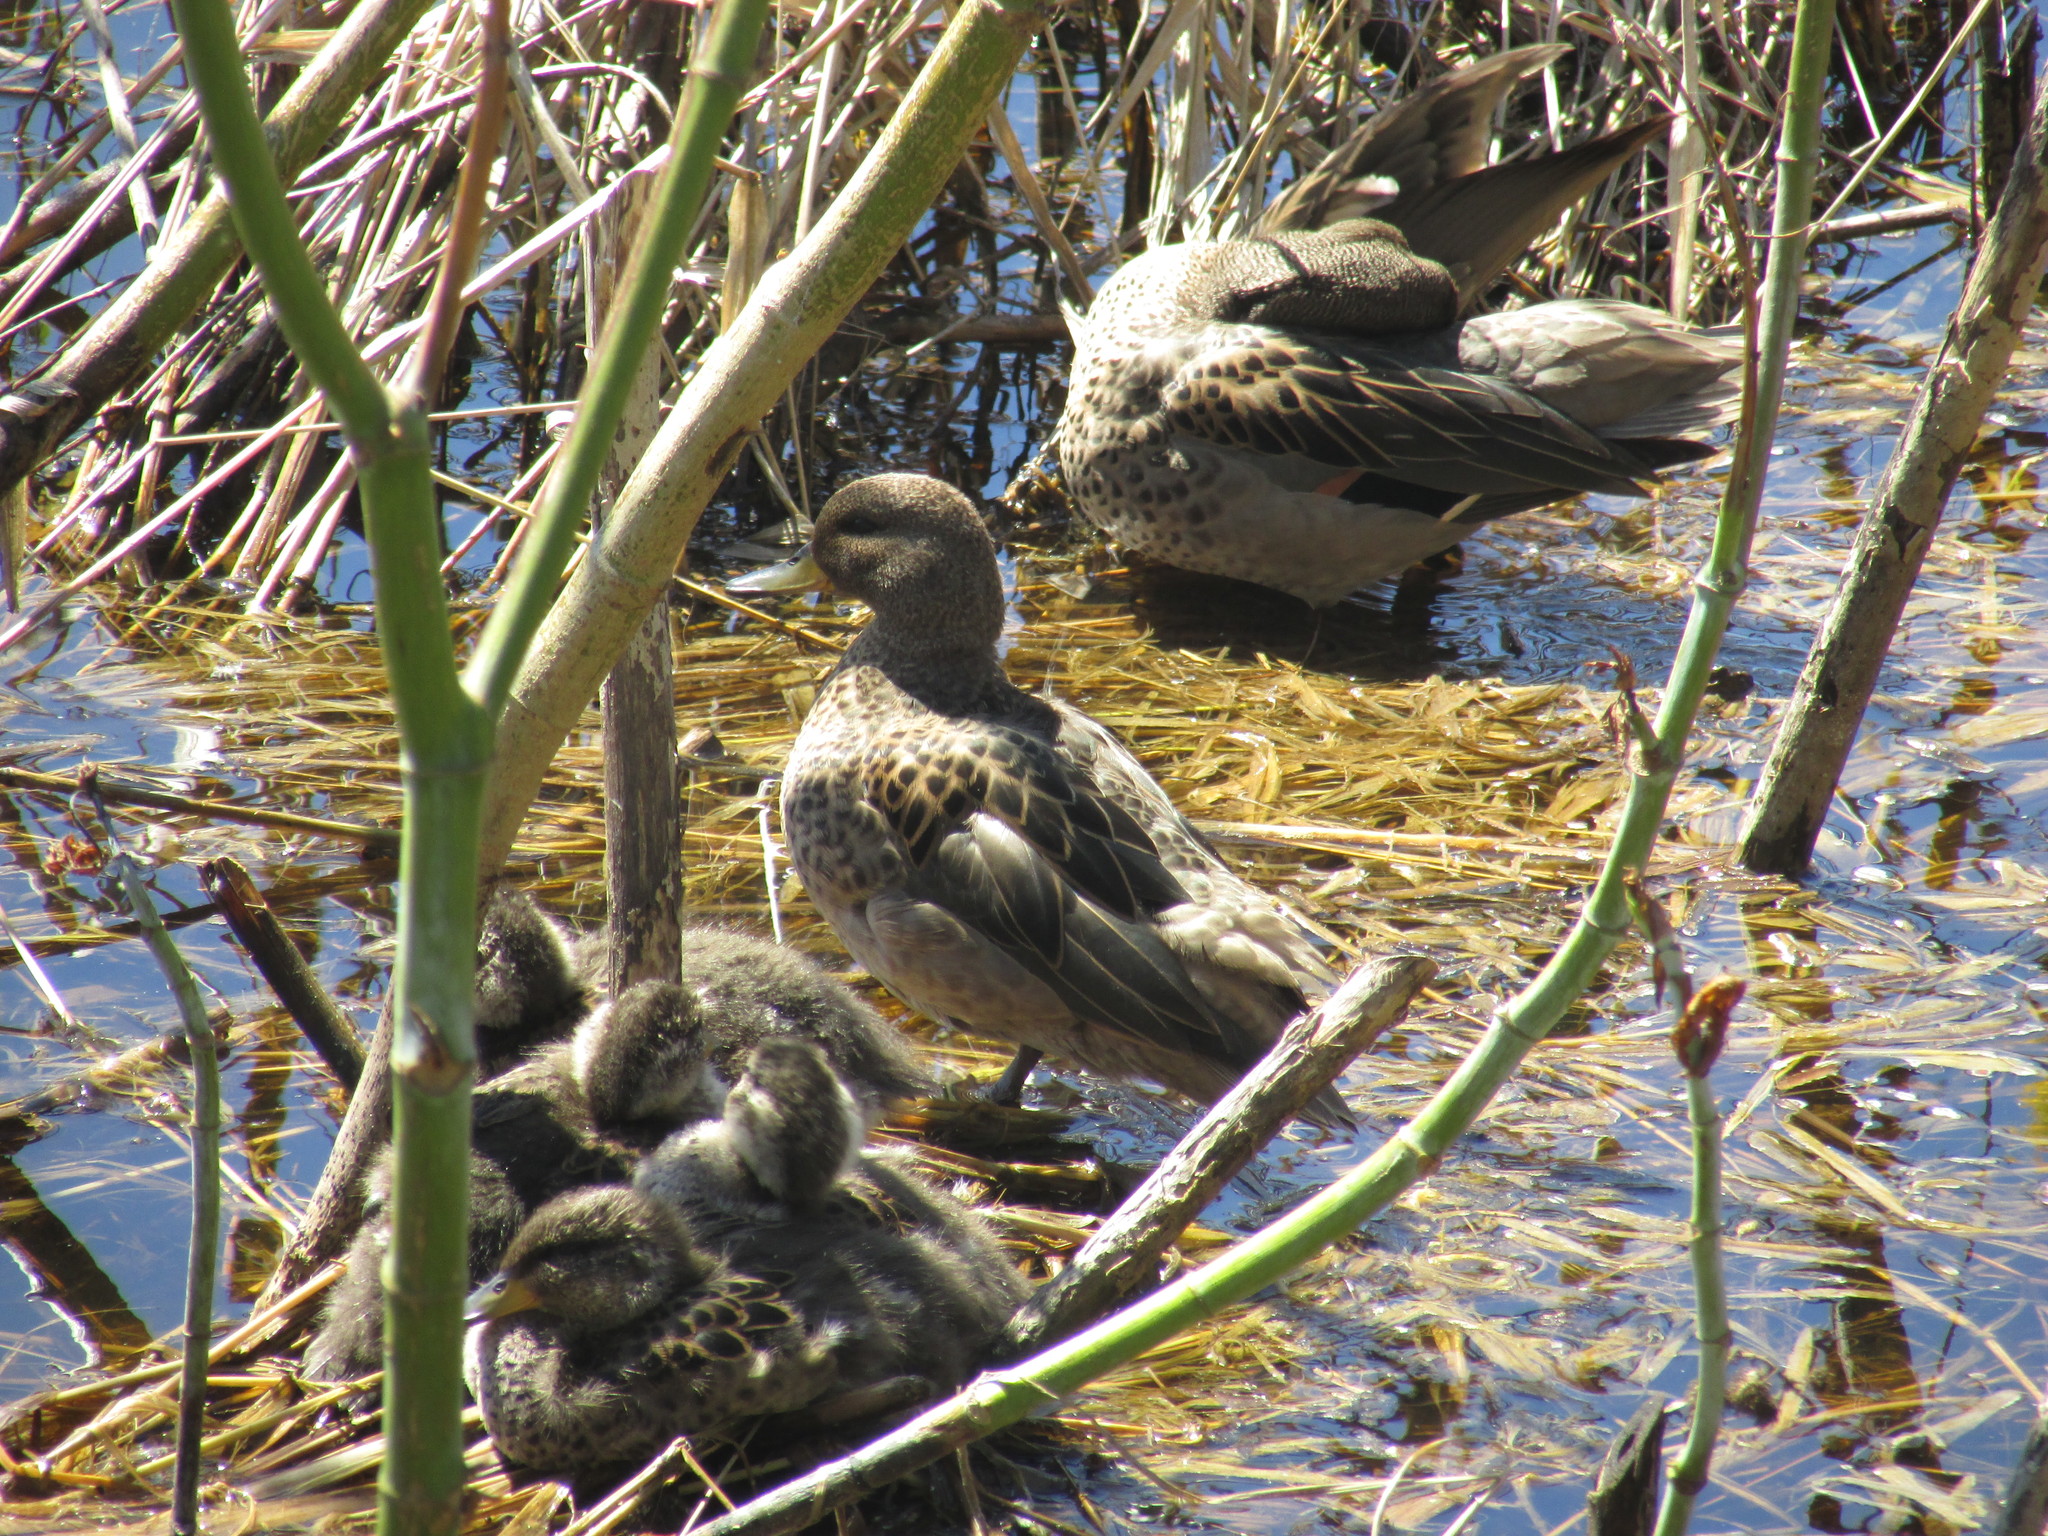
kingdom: Animalia
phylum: Chordata
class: Aves
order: Anseriformes
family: Anatidae
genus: Anas
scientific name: Anas flavirostris
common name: Yellow-billed teal
